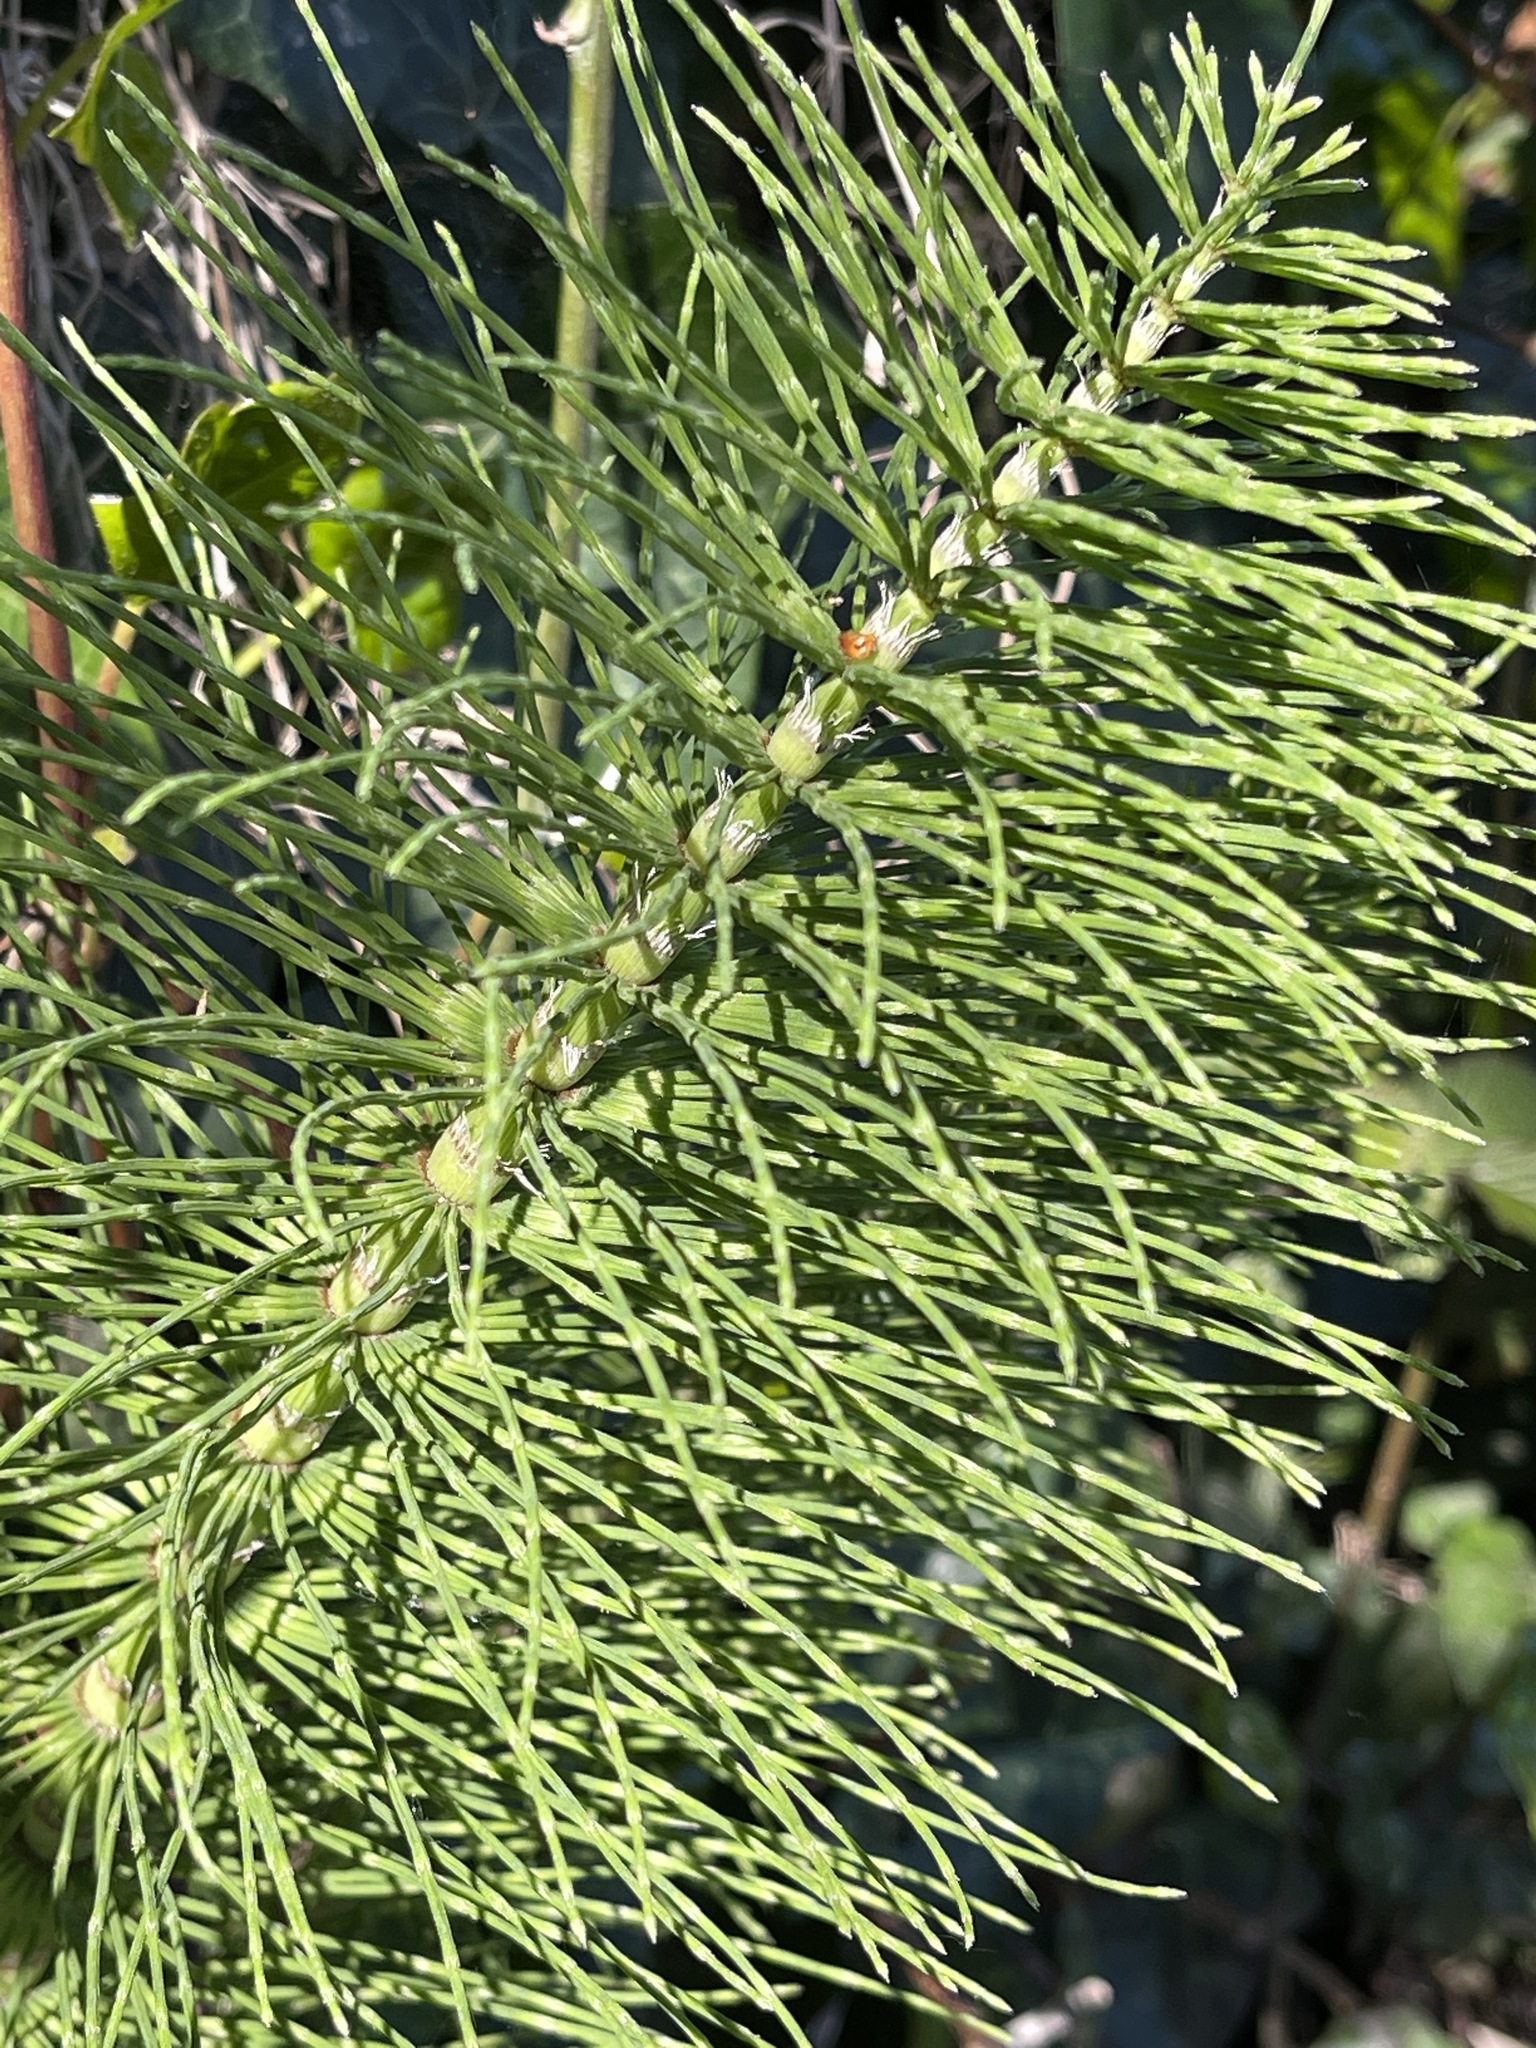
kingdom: Plantae
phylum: Tracheophyta
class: Polypodiopsida
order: Equisetales
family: Equisetaceae
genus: Equisetum
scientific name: Equisetum telmateia
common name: Great horsetail
